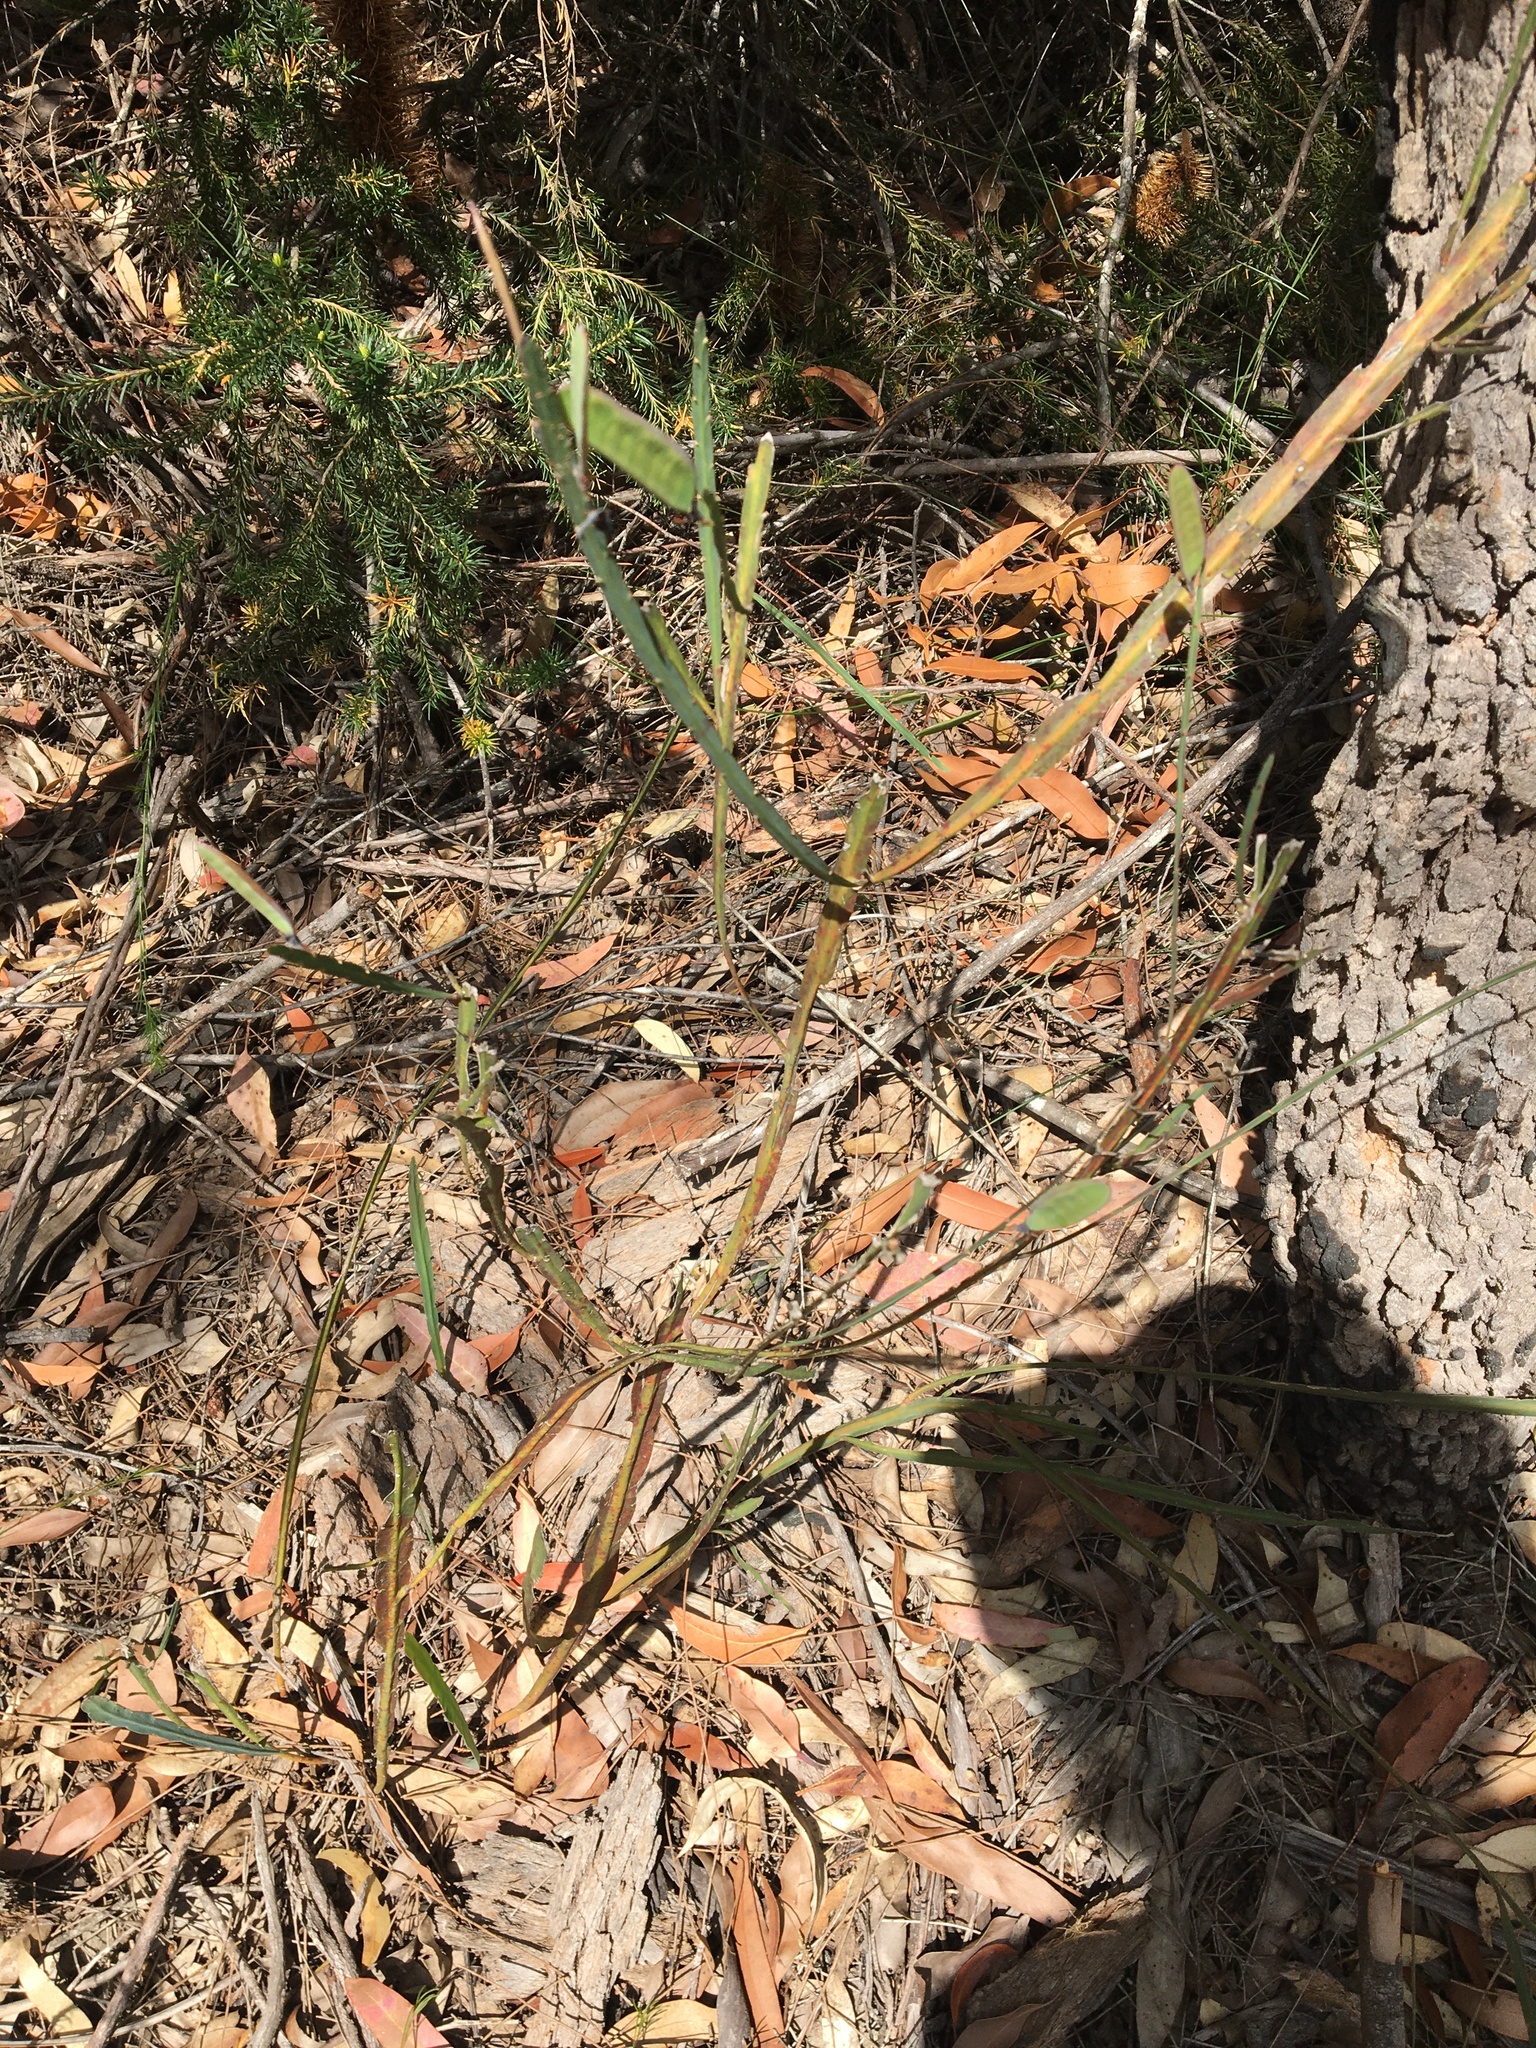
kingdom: Plantae
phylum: Tracheophyta
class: Magnoliopsida
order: Fabales
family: Fabaceae
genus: Bossiaea
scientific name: Bossiaea scolopendria
